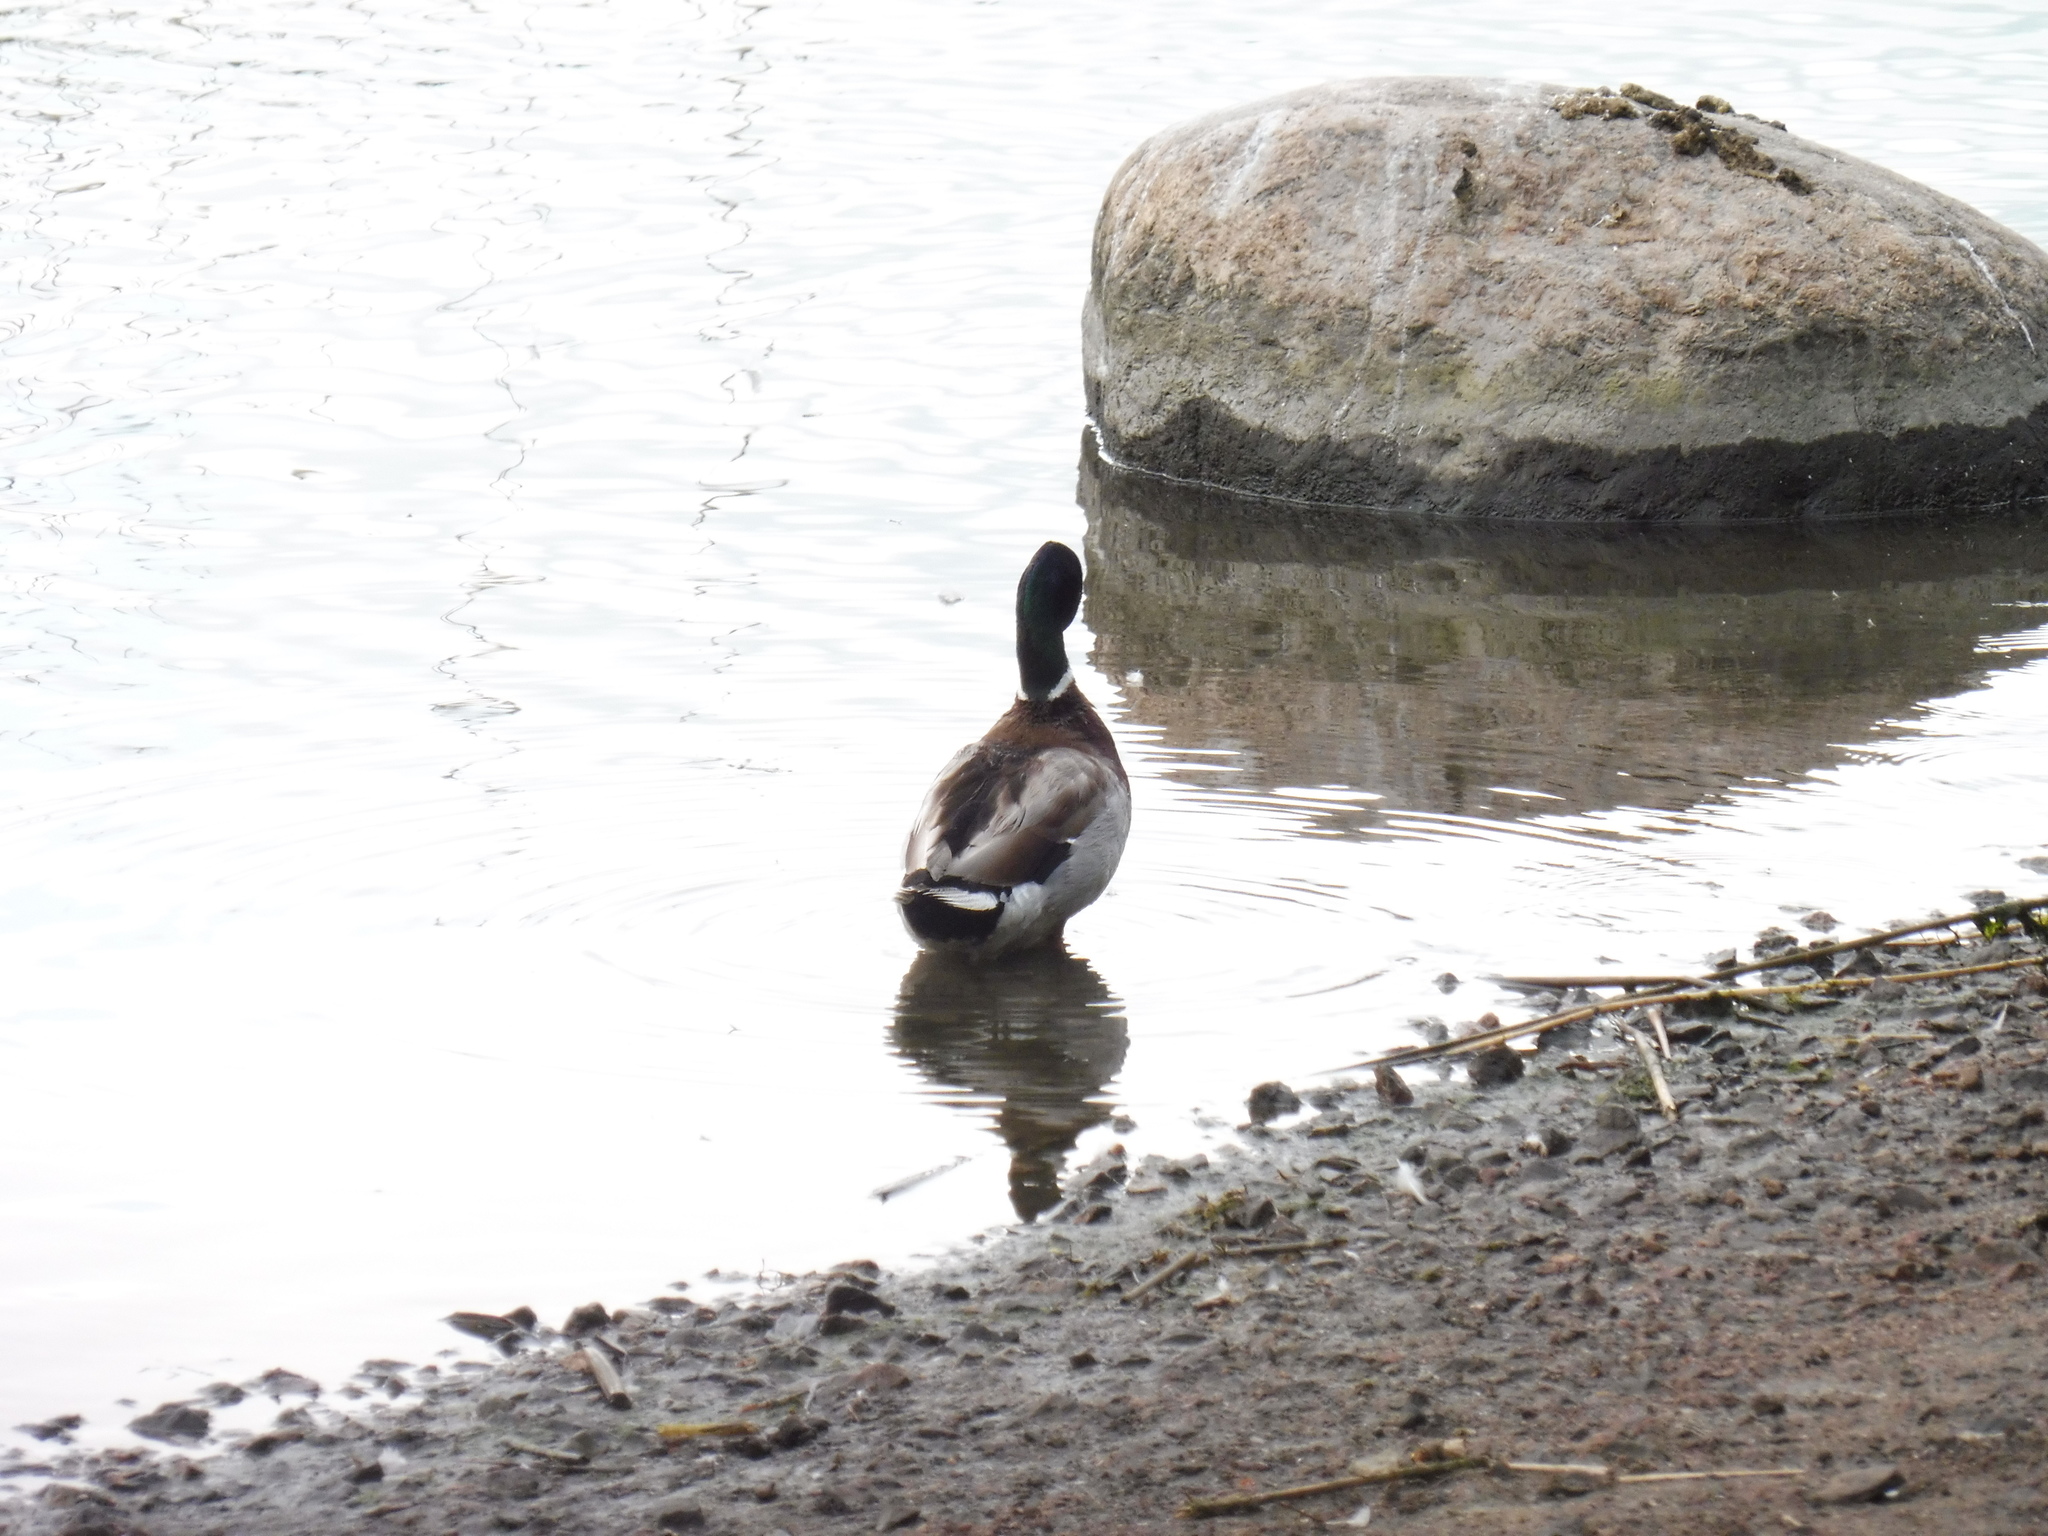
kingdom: Animalia
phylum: Chordata
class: Aves
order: Anseriformes
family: Anatidae
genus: Anas
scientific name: Anas platyrhynchos
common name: Mallard
